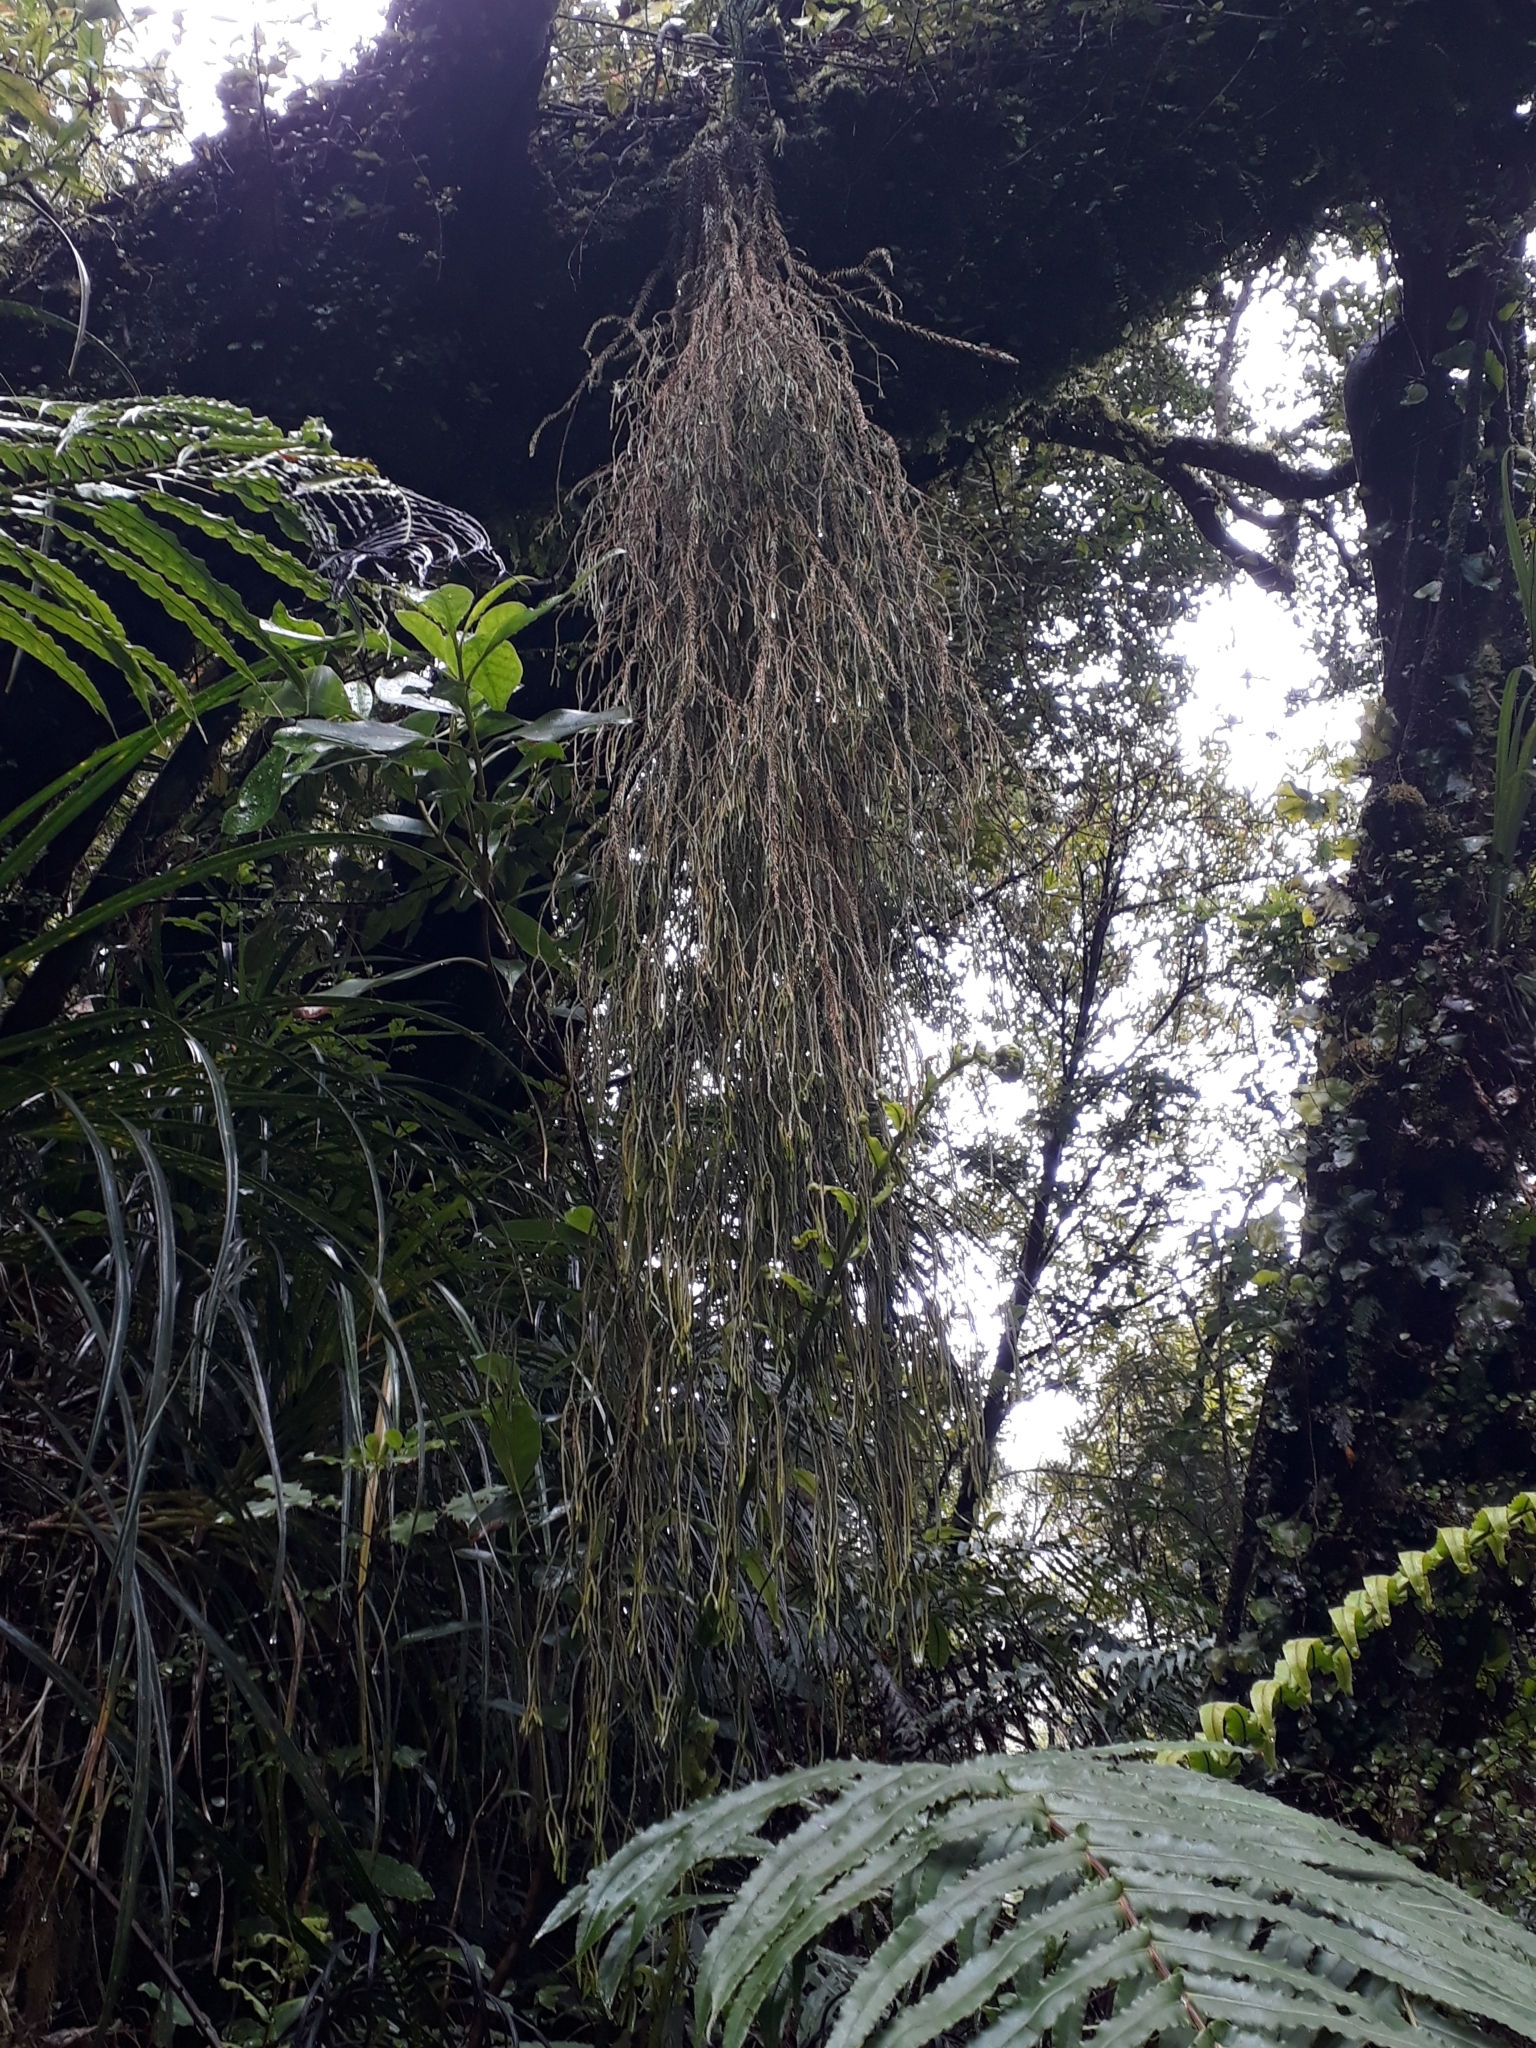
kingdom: Plantae
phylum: Tracheophyta
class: Lycopodiopsida
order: Lycopodiales
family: Lycopodiaceae
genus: Phlegmariurus
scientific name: Phlegmariurus varius
